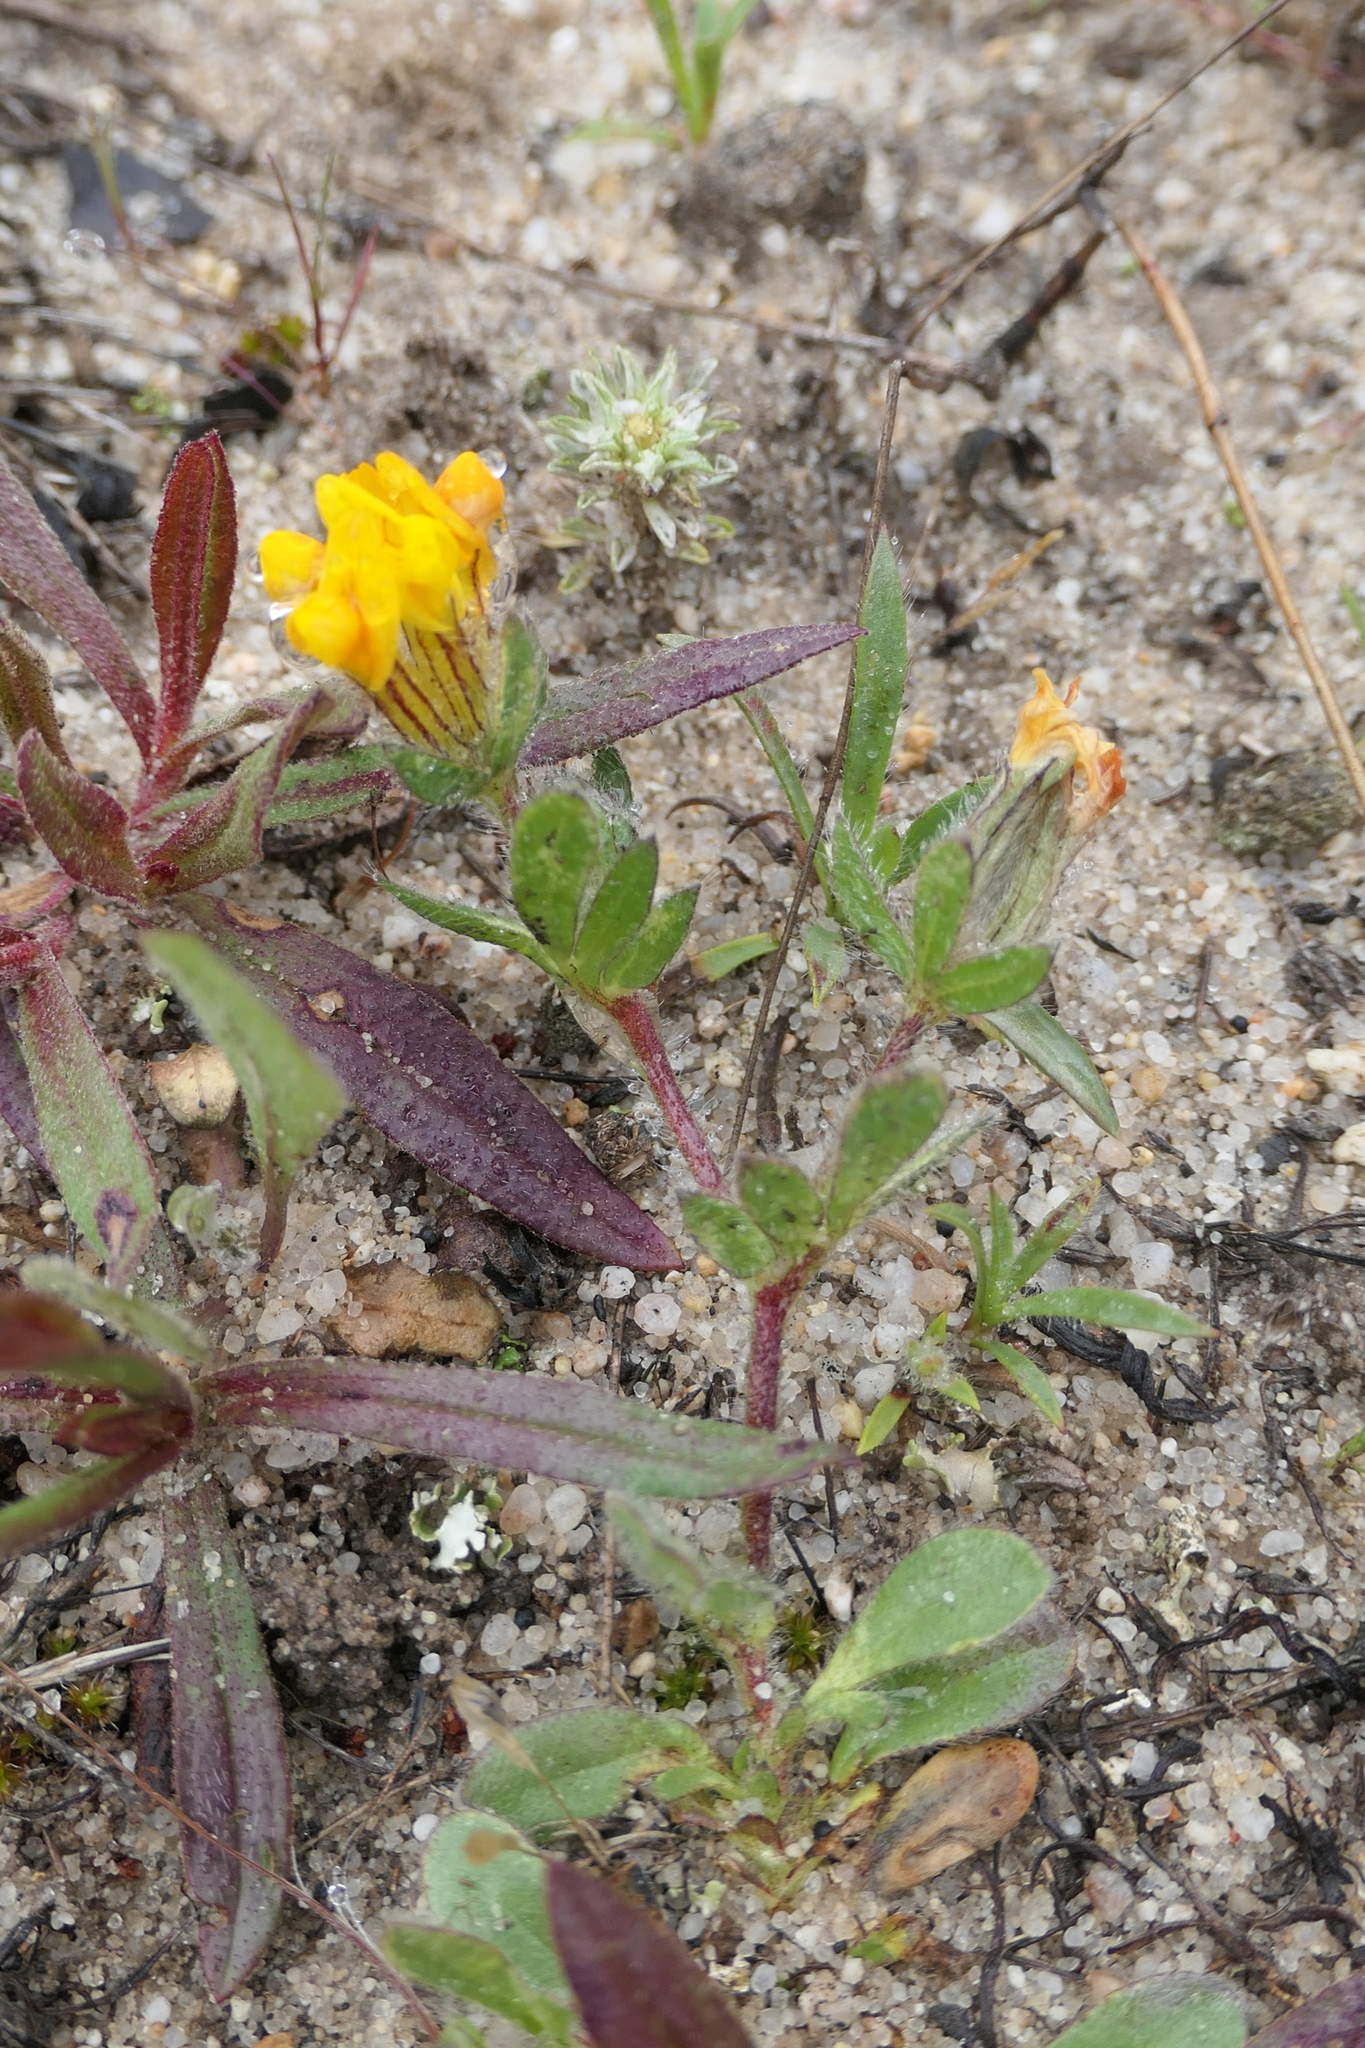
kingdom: Plantae
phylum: Tracheophyta
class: Magnoliopsida
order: Fabales
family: Fabaceae
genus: Anthyllis
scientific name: Anthyllis lotoides
